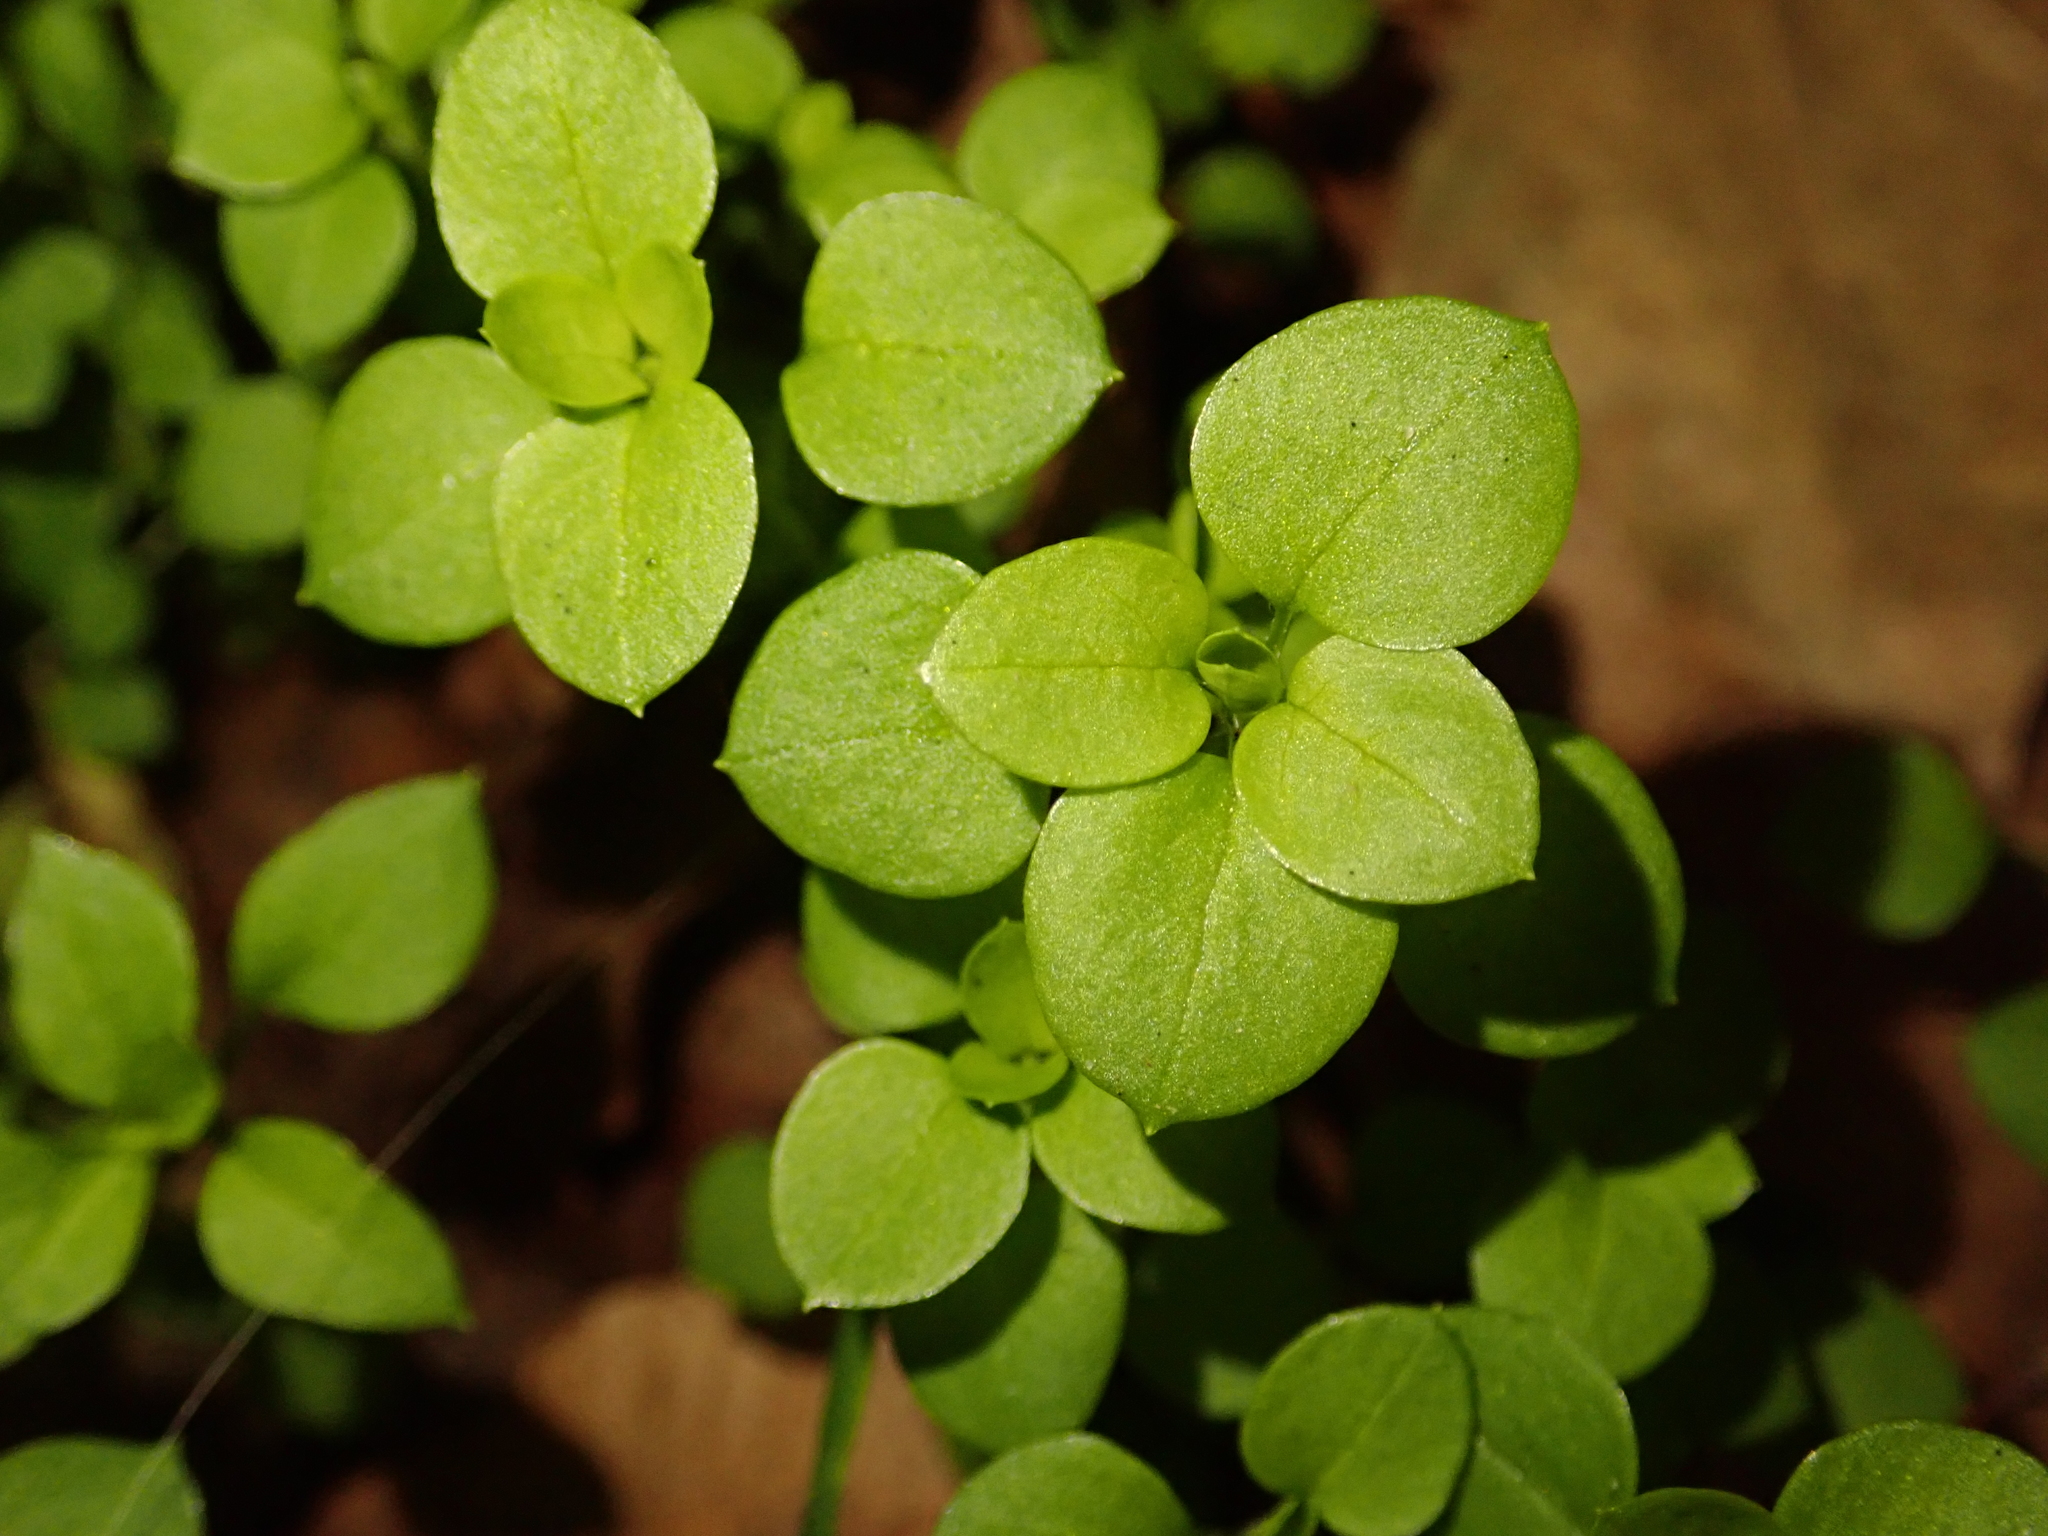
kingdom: Plantae
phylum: Tracheophyta
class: Magnoliopsida
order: Caryophyllales
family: Caryophyllaceae
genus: Stellaria
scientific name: Stellaria media
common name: Common chickweed
